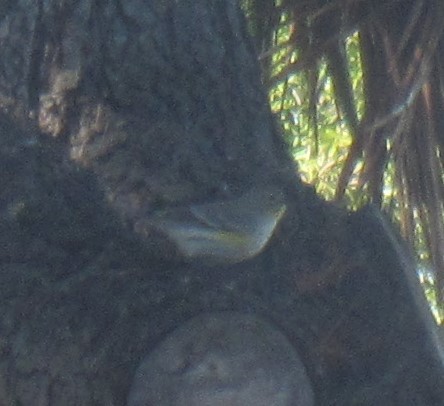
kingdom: Animalia
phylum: Chordata
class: Aves
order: Passeriformes
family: Parulidae
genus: Setophaga
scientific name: Setophaga coronata
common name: Myrtle warbler
